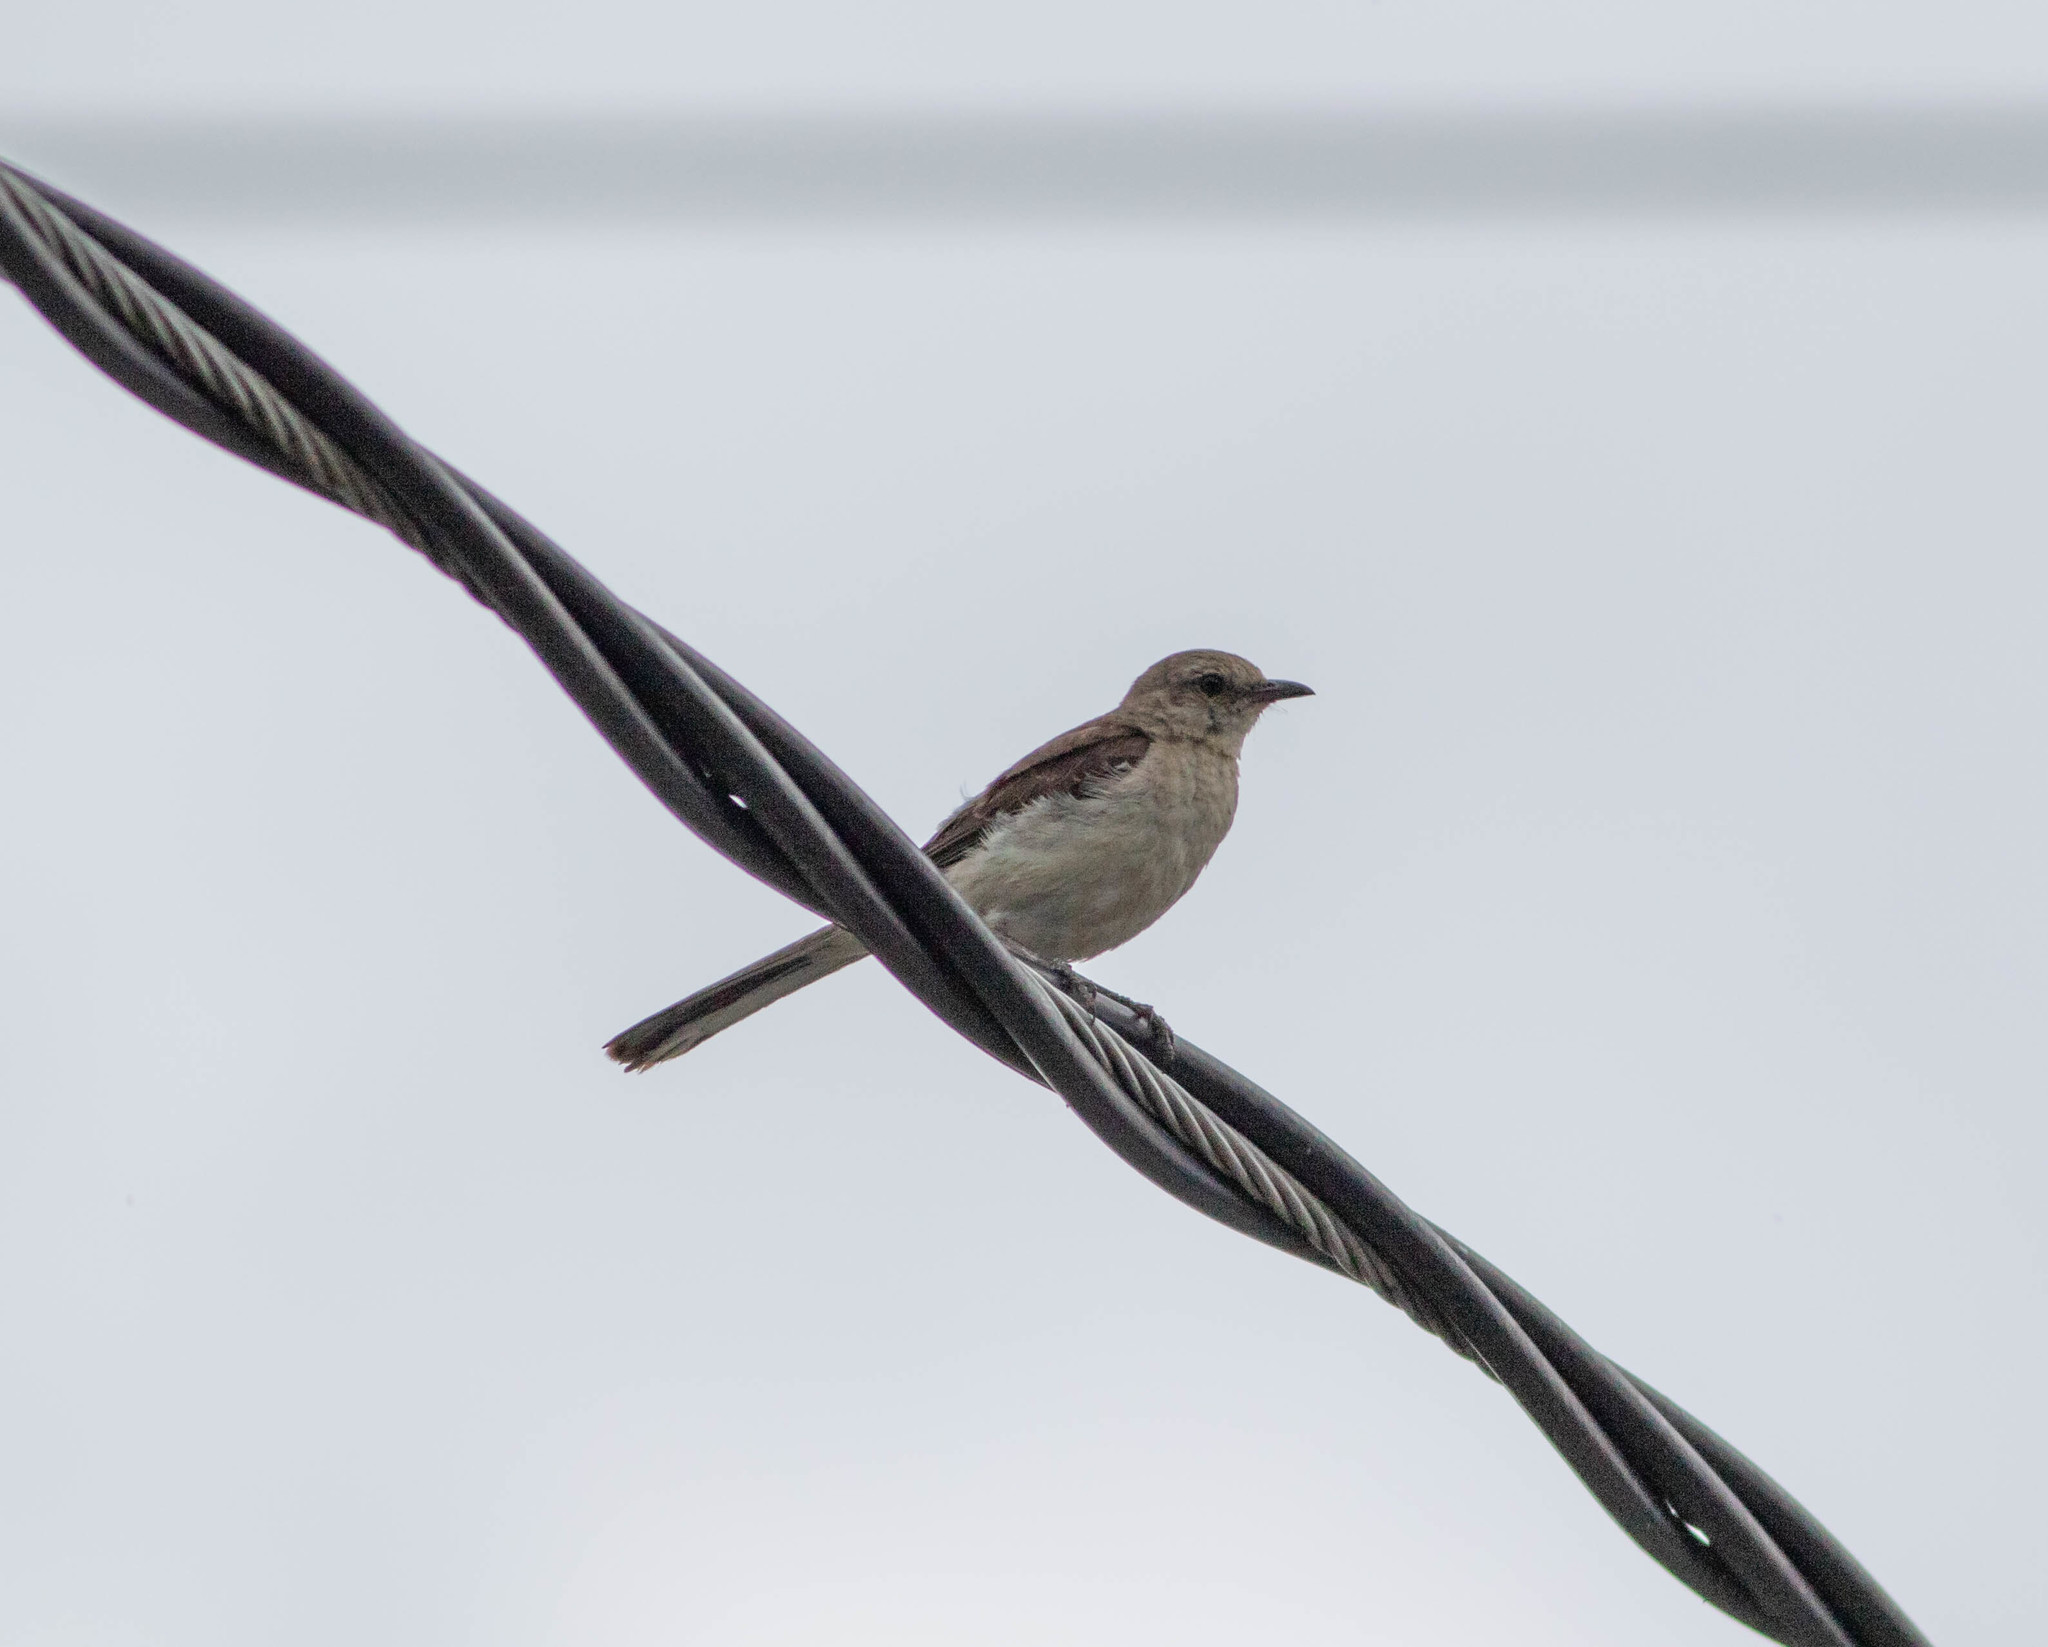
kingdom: Animalia
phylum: Chordata
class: Aves
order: Passeriformes
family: Mimidae
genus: Mimus
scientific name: Mimus polyglottos
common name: Northern mockingbird
